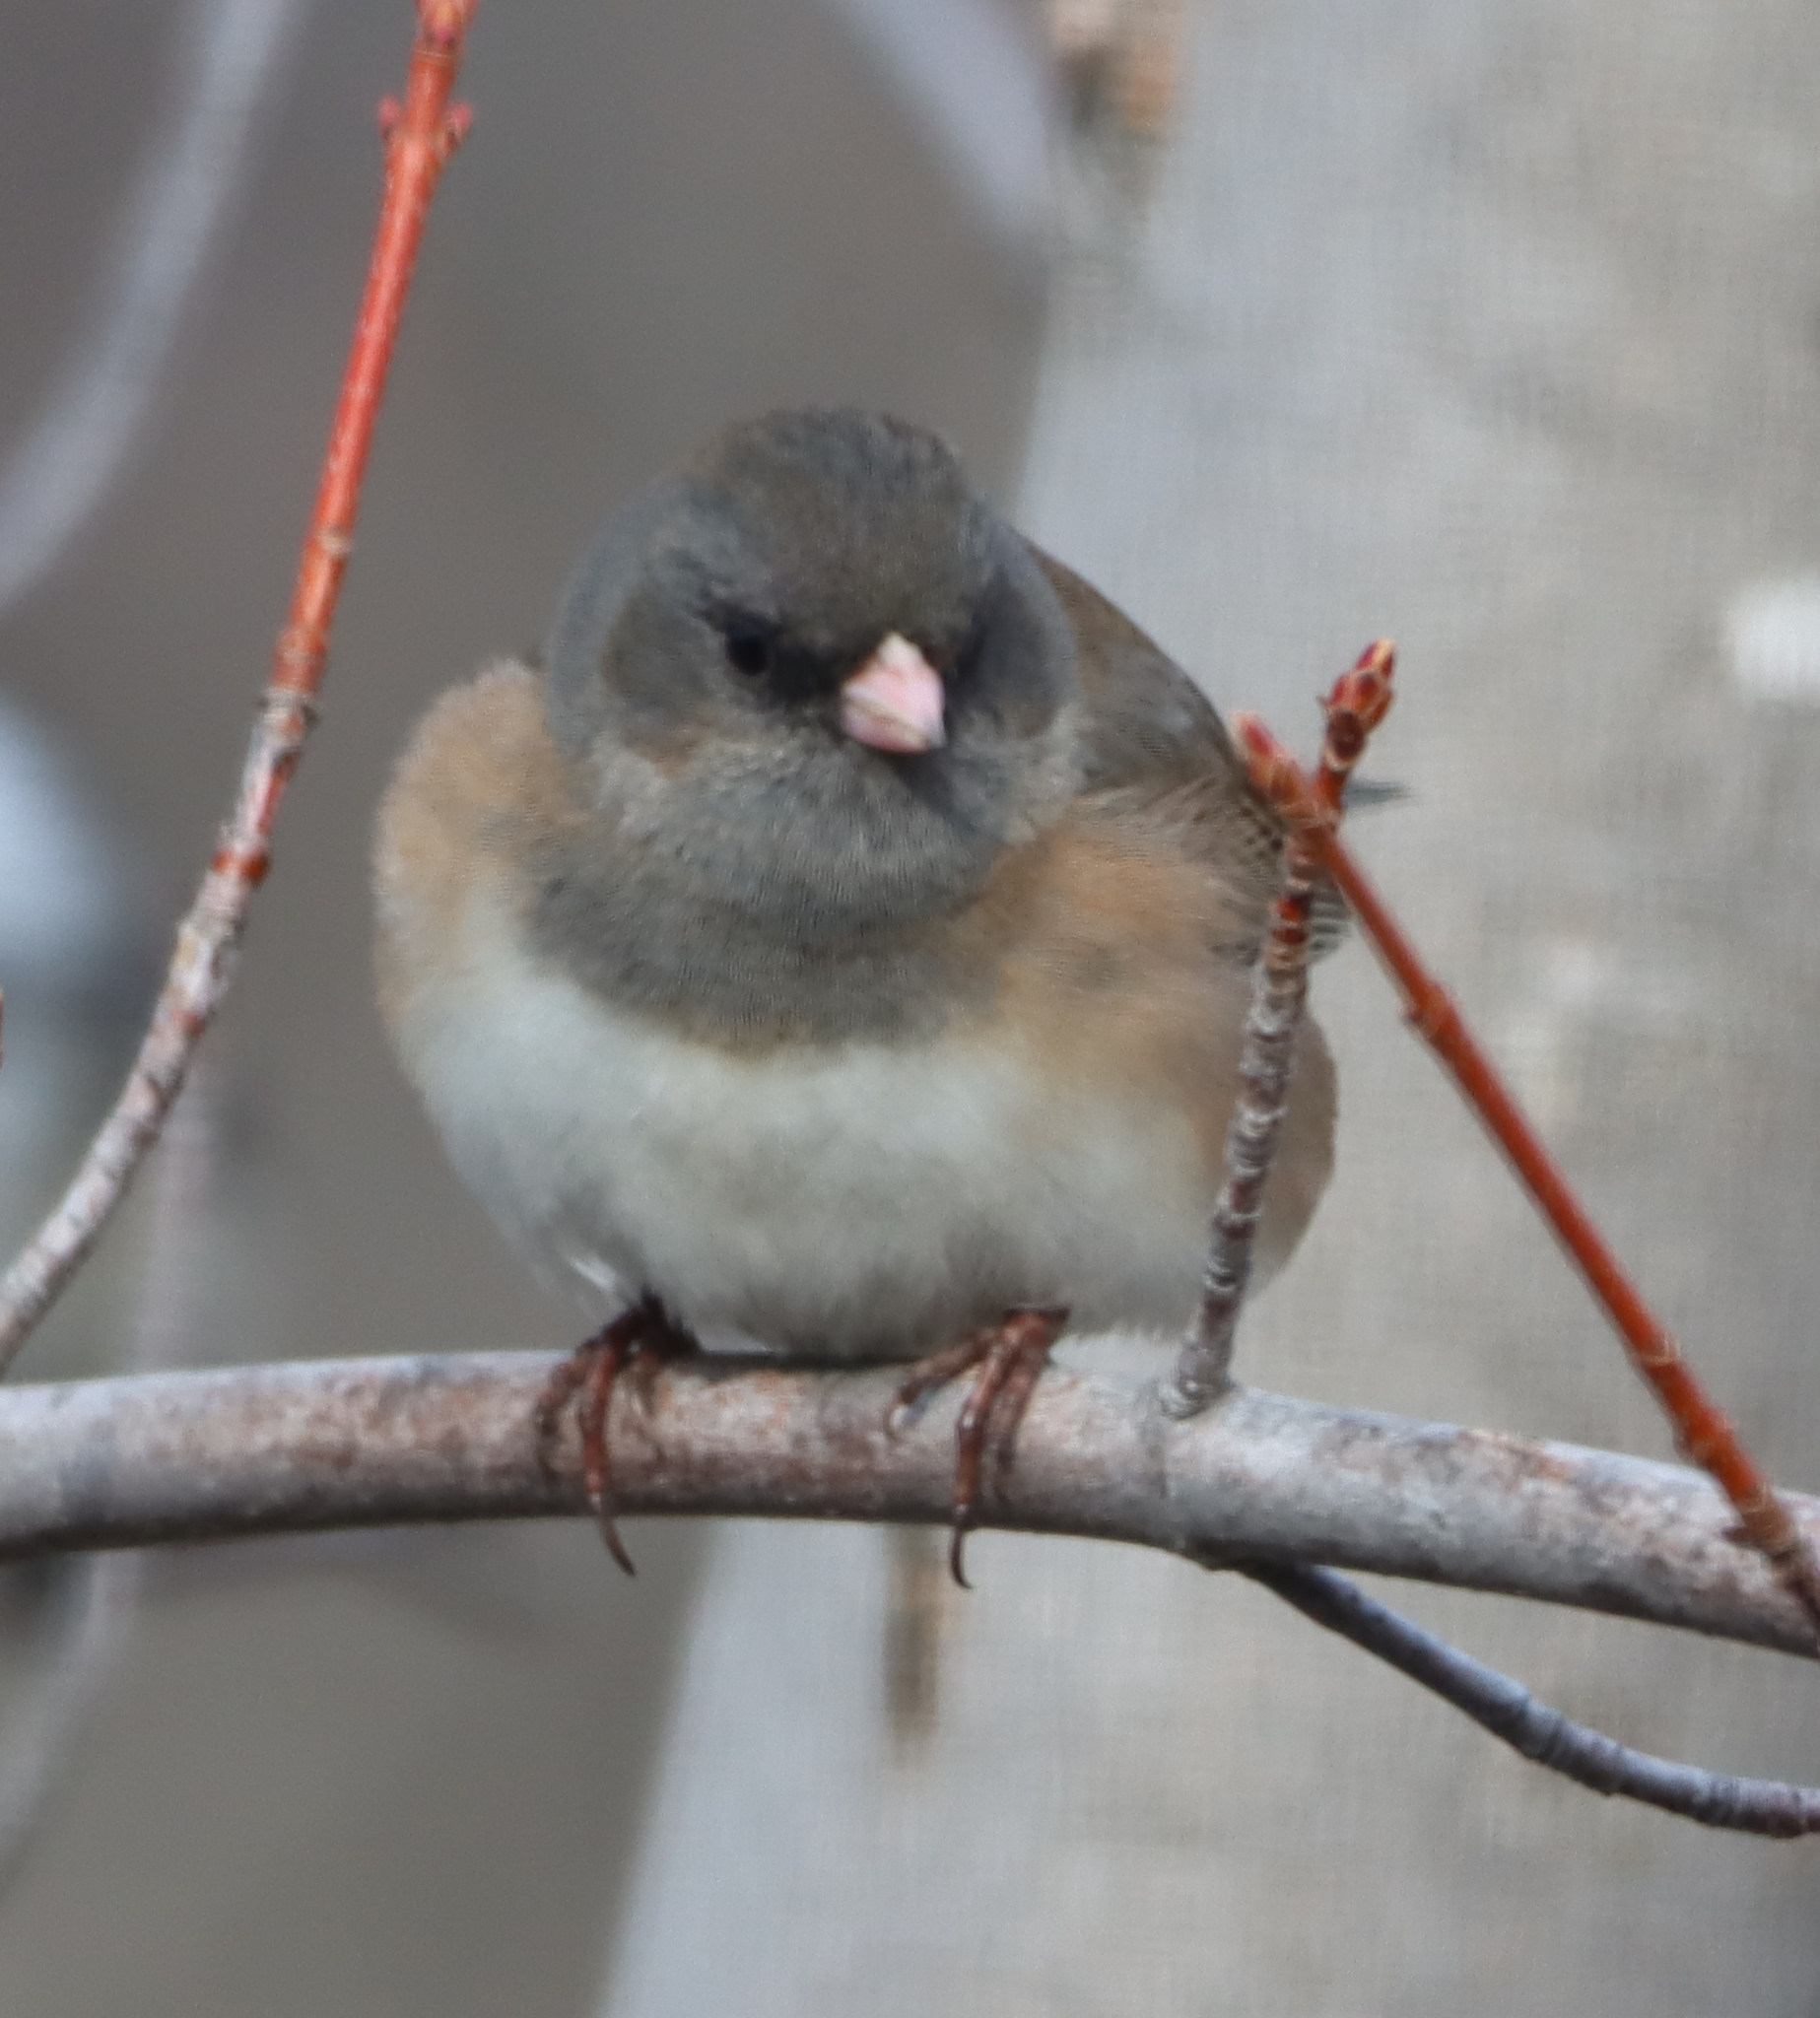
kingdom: Animalia
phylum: Chordata
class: Aves
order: Passeriformes
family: Passerellidae
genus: Junco
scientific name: Junco hyemalis
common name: Dark-eyed junco
